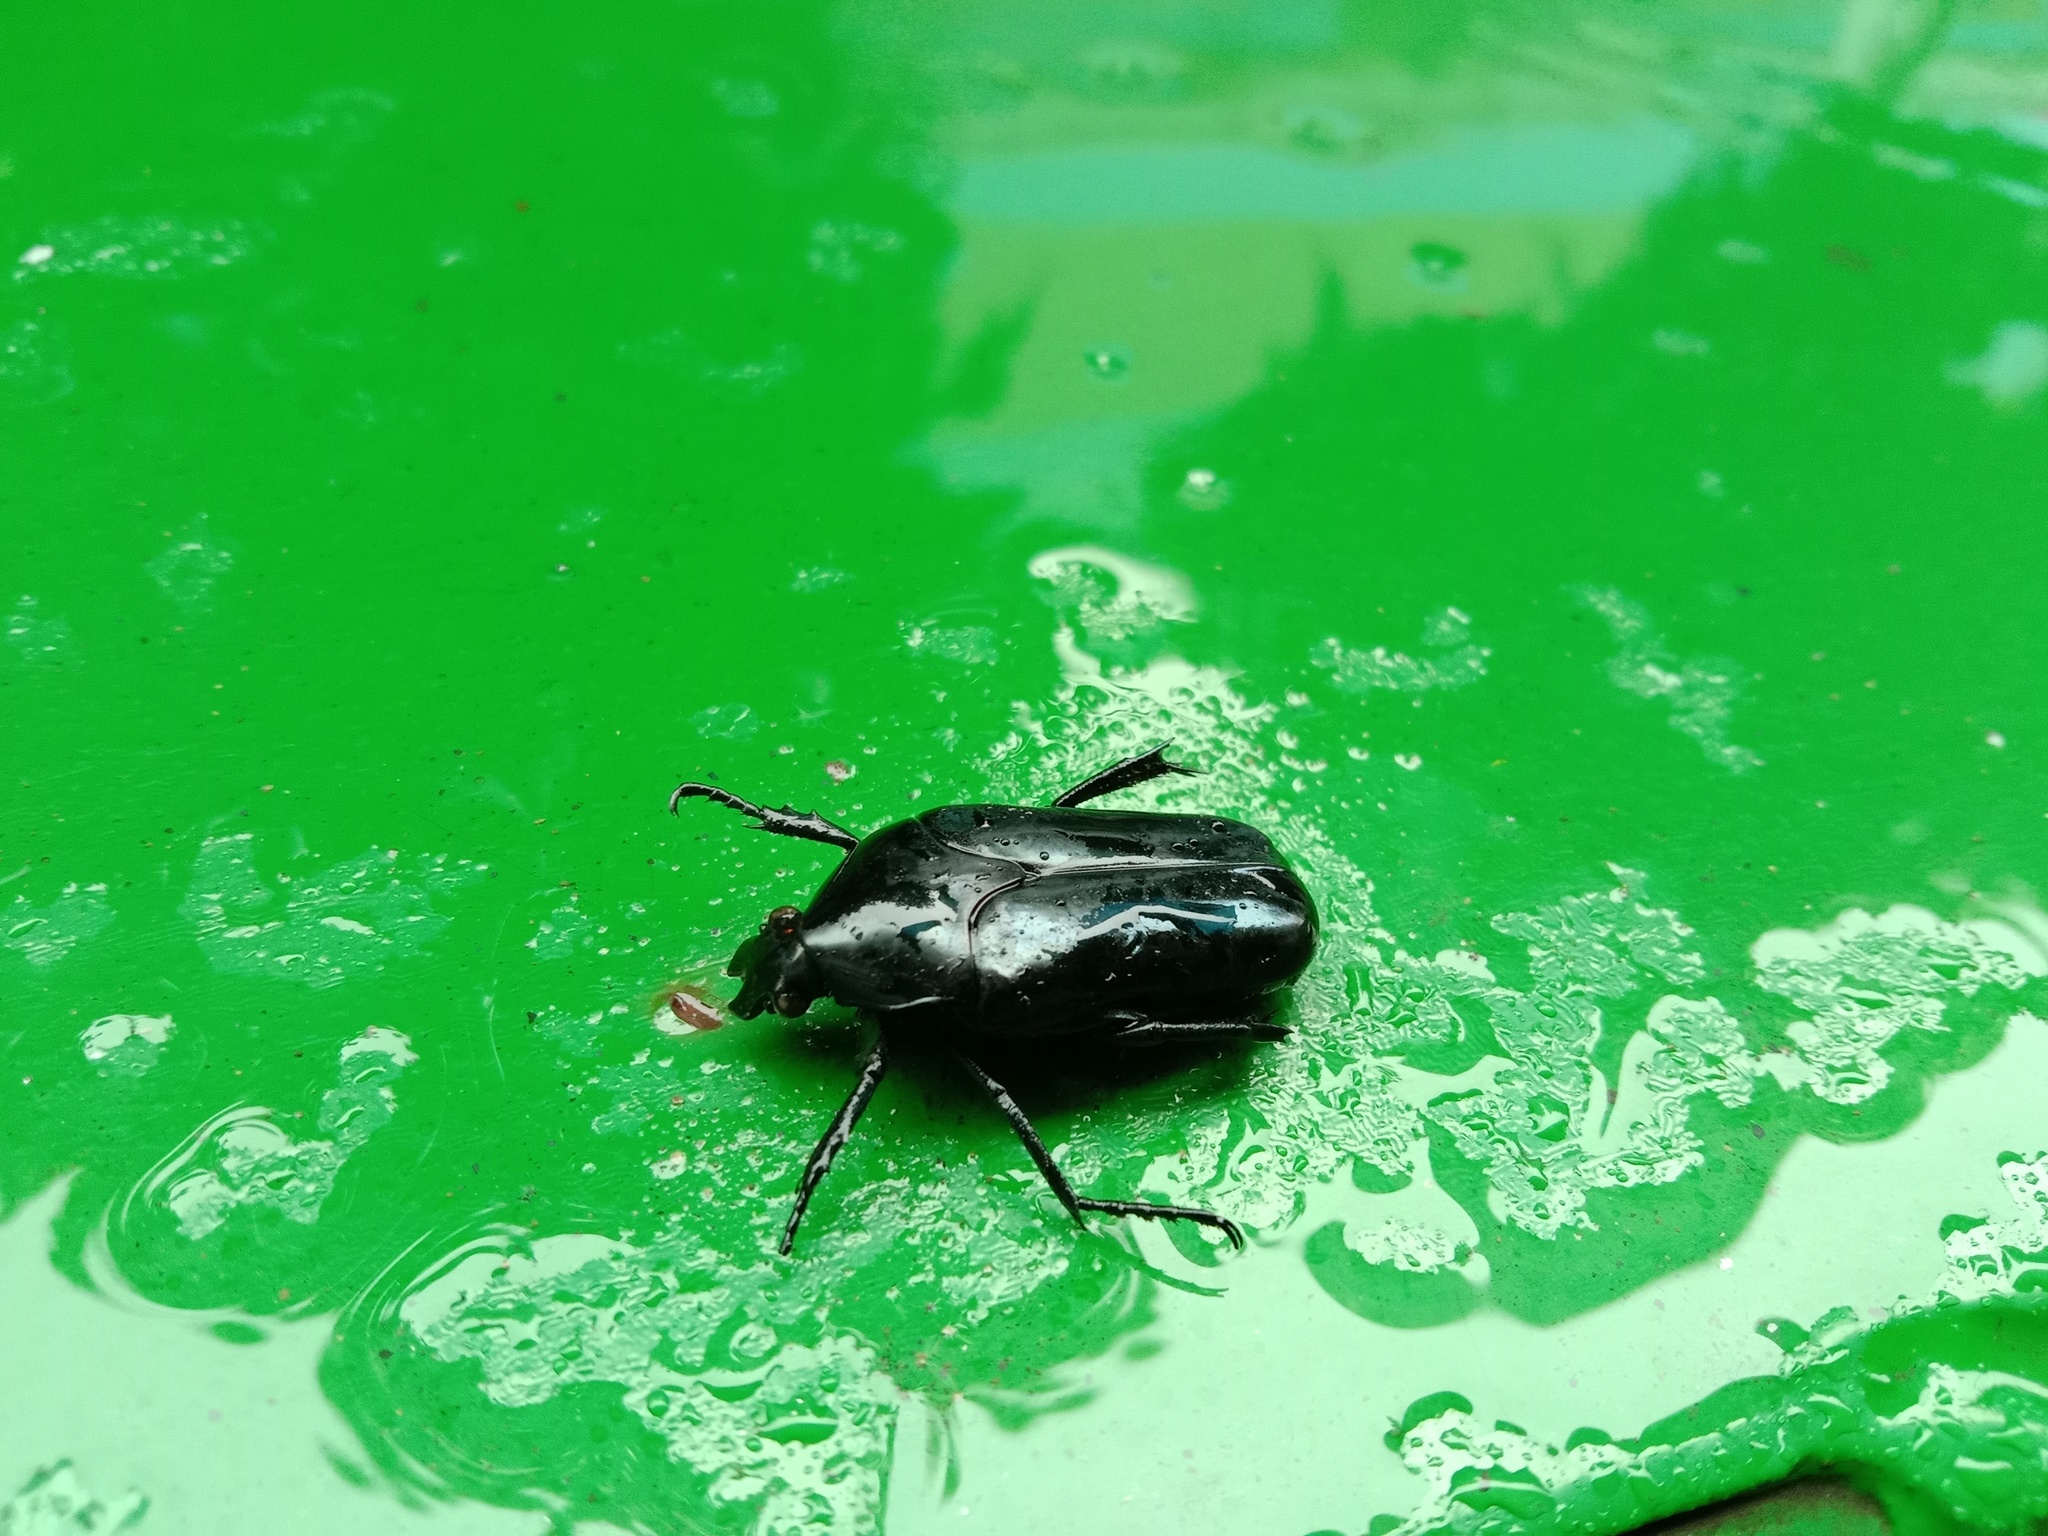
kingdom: Animalia
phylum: Arthropoda
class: Insecta
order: Coleoptera
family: Scarabaeidae
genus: Macronota
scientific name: Macronota shangaicus
